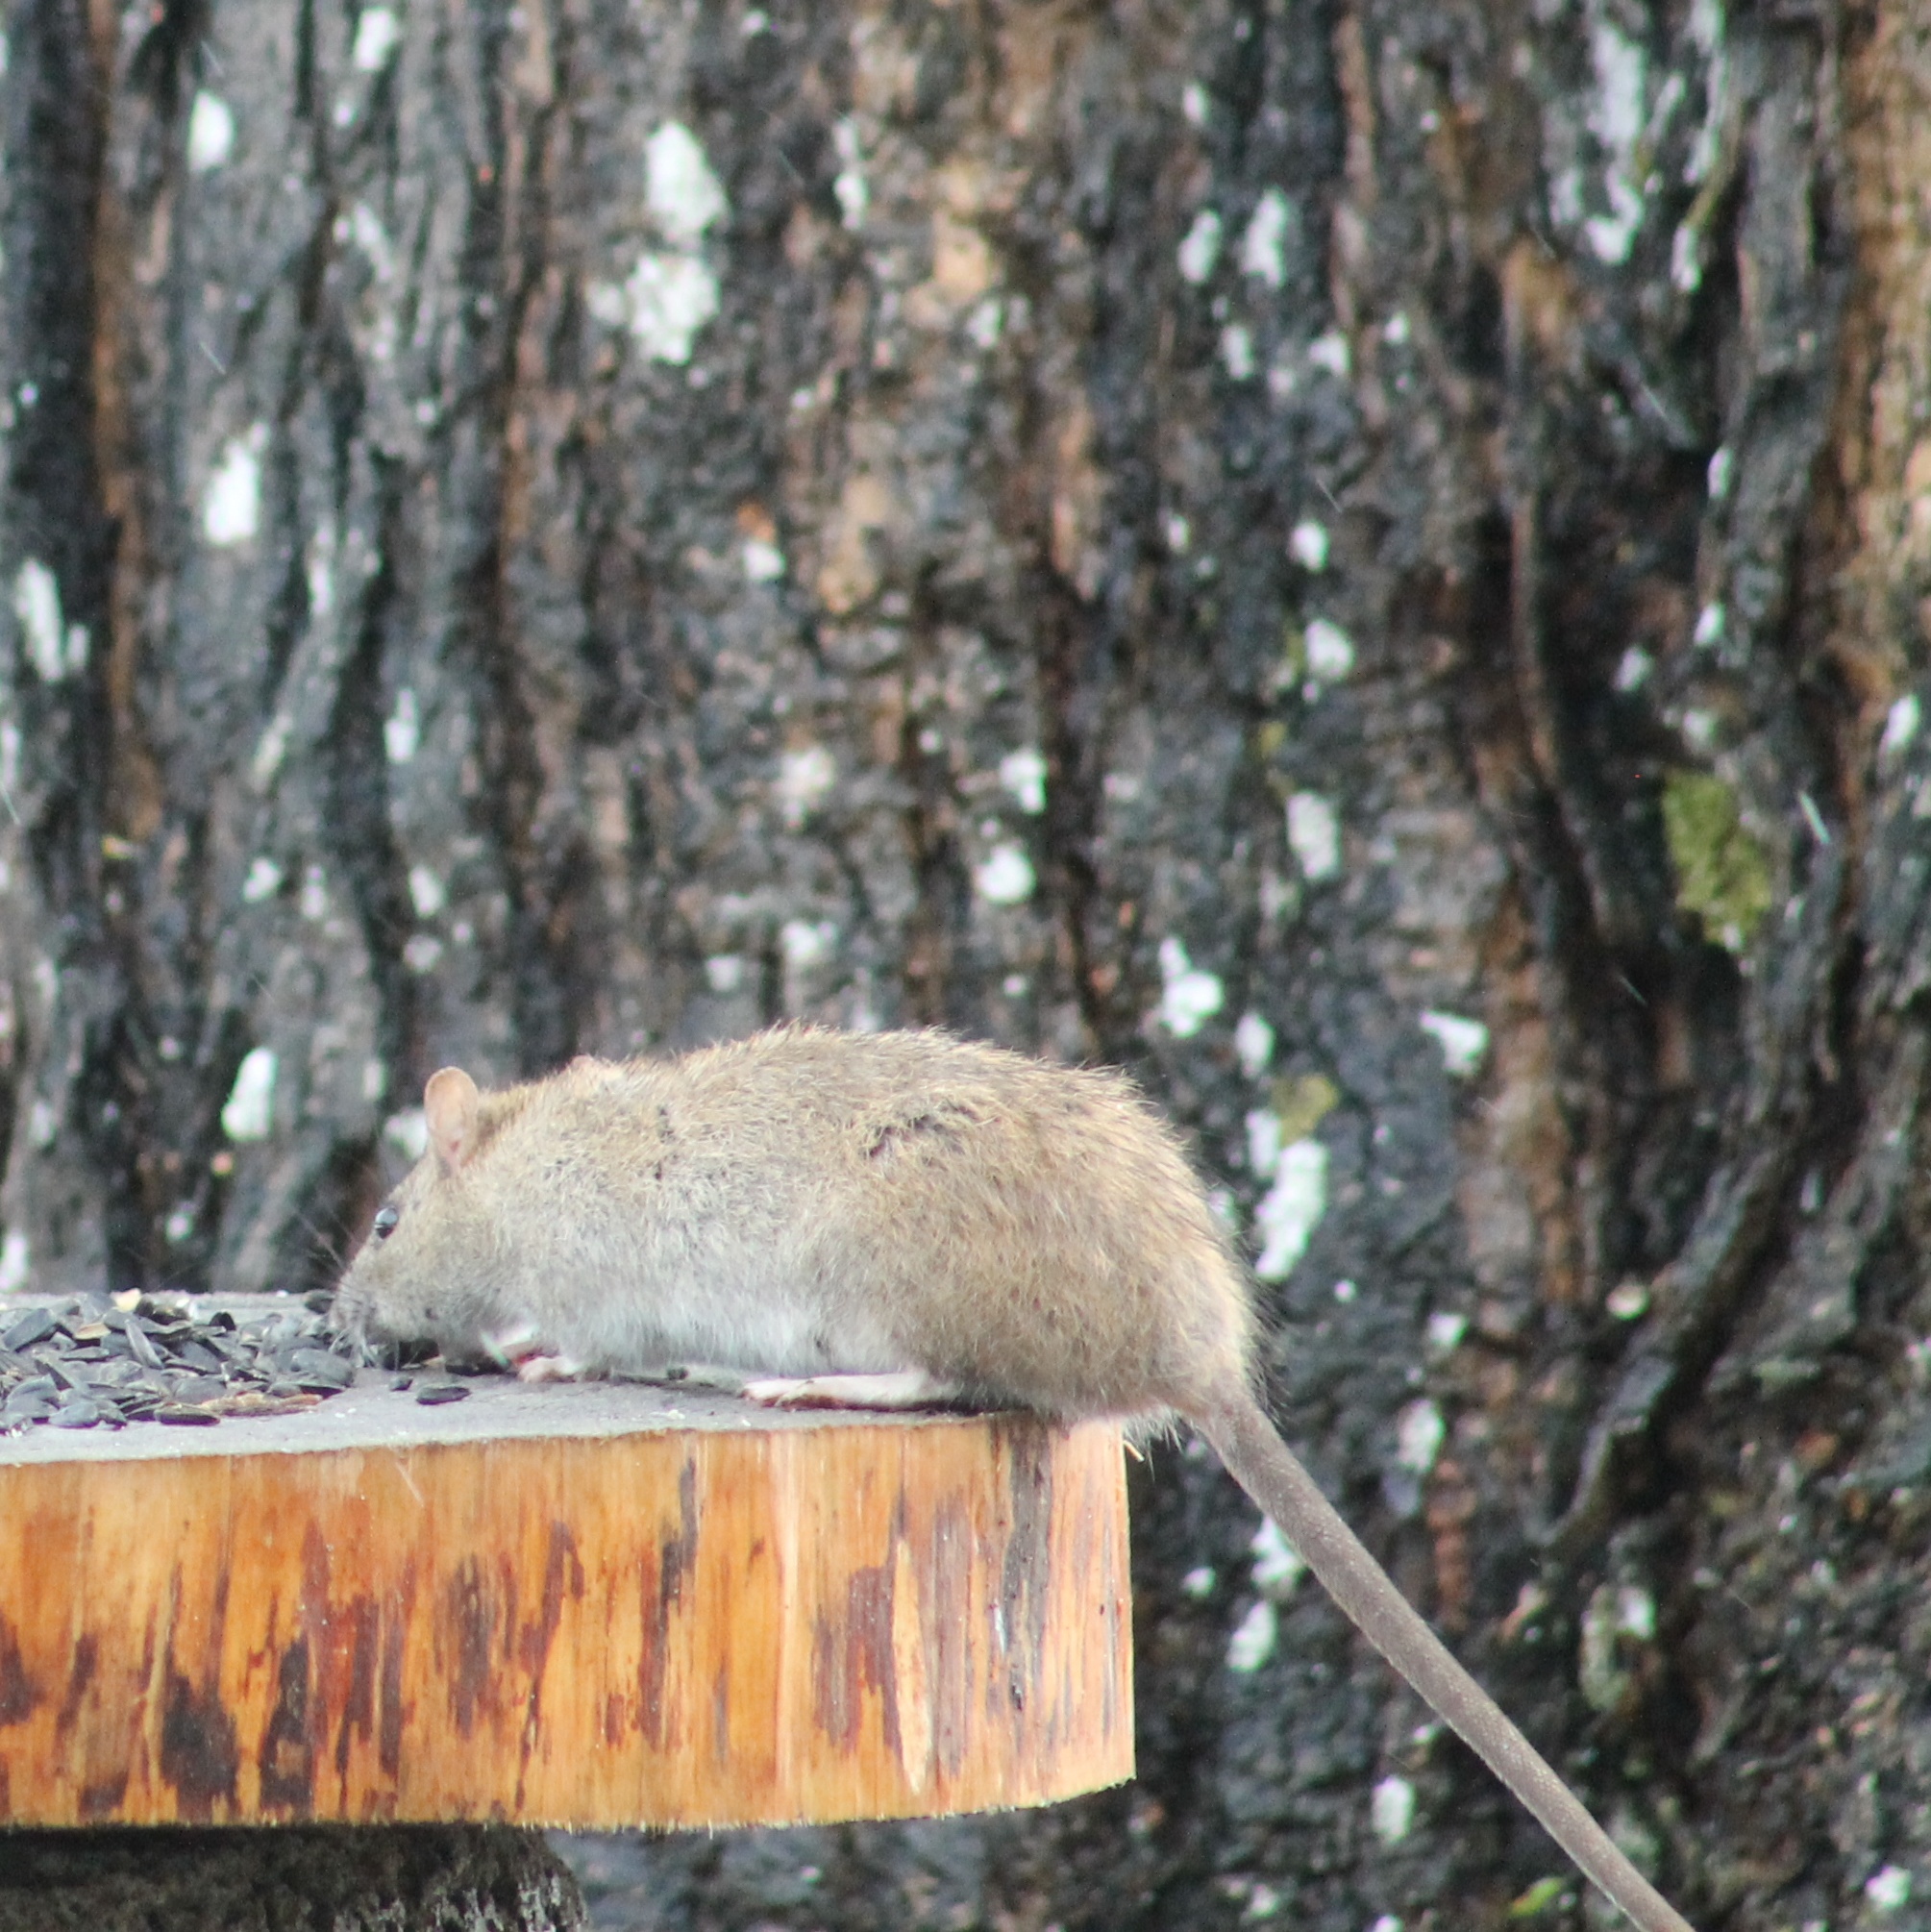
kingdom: Animalia
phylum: Chordata
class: Mammalia
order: Rodentia
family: Muridae
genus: Rattus
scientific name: Rattus norvegicus
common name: Brown rat
